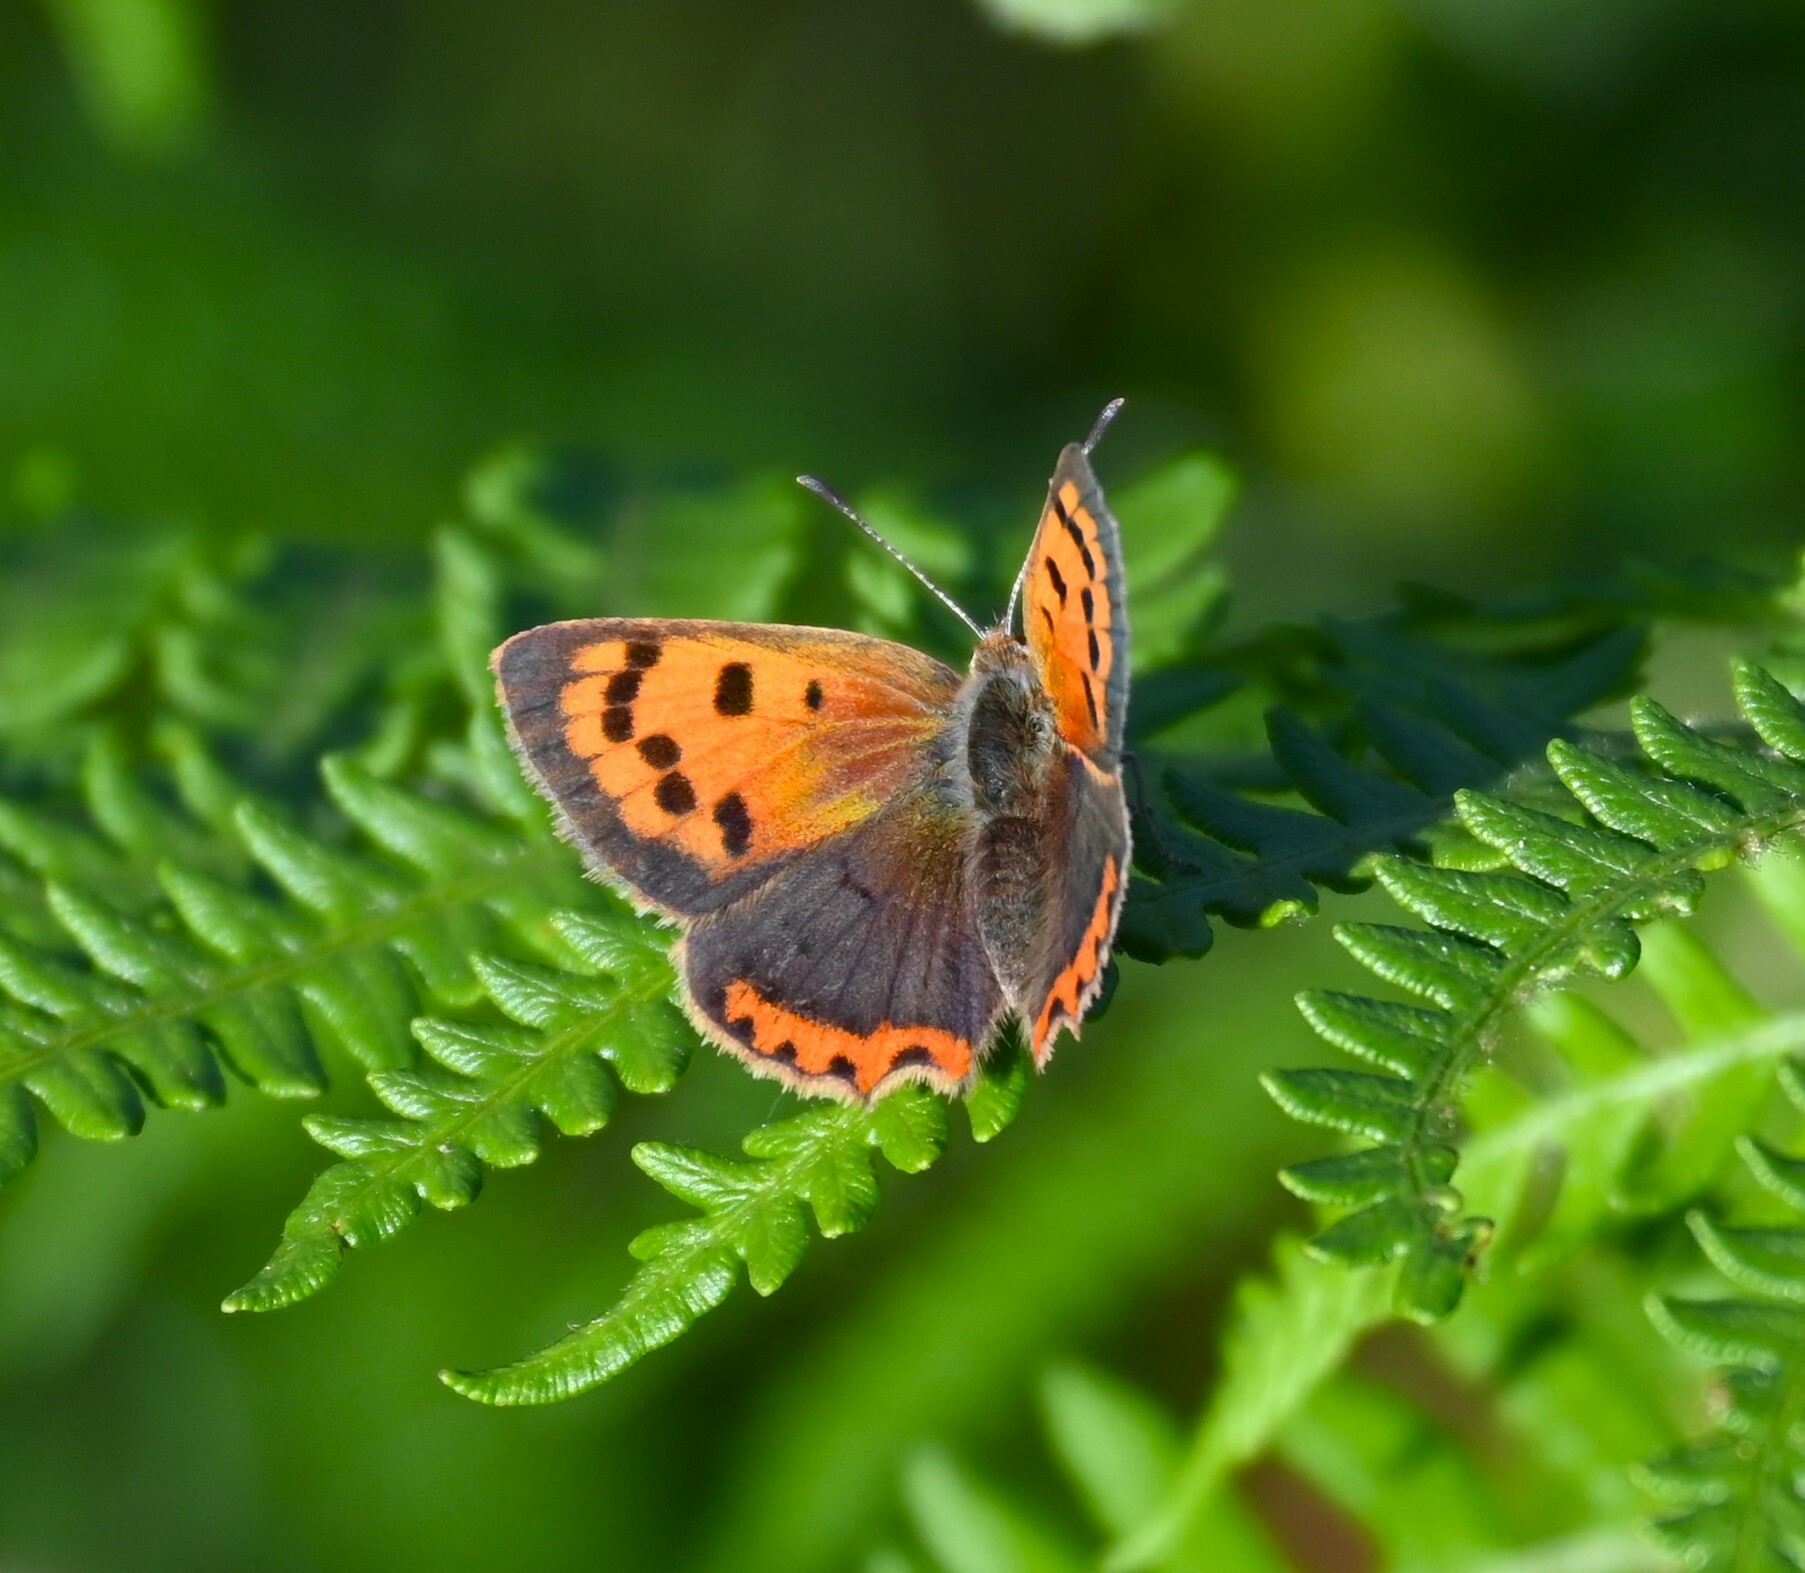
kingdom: Animalia
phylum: Arthropoda
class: Insecta
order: Lepidoptera
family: Lycaenidae
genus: Lycaena
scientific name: Lycaena phlaeas
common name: Small copper
